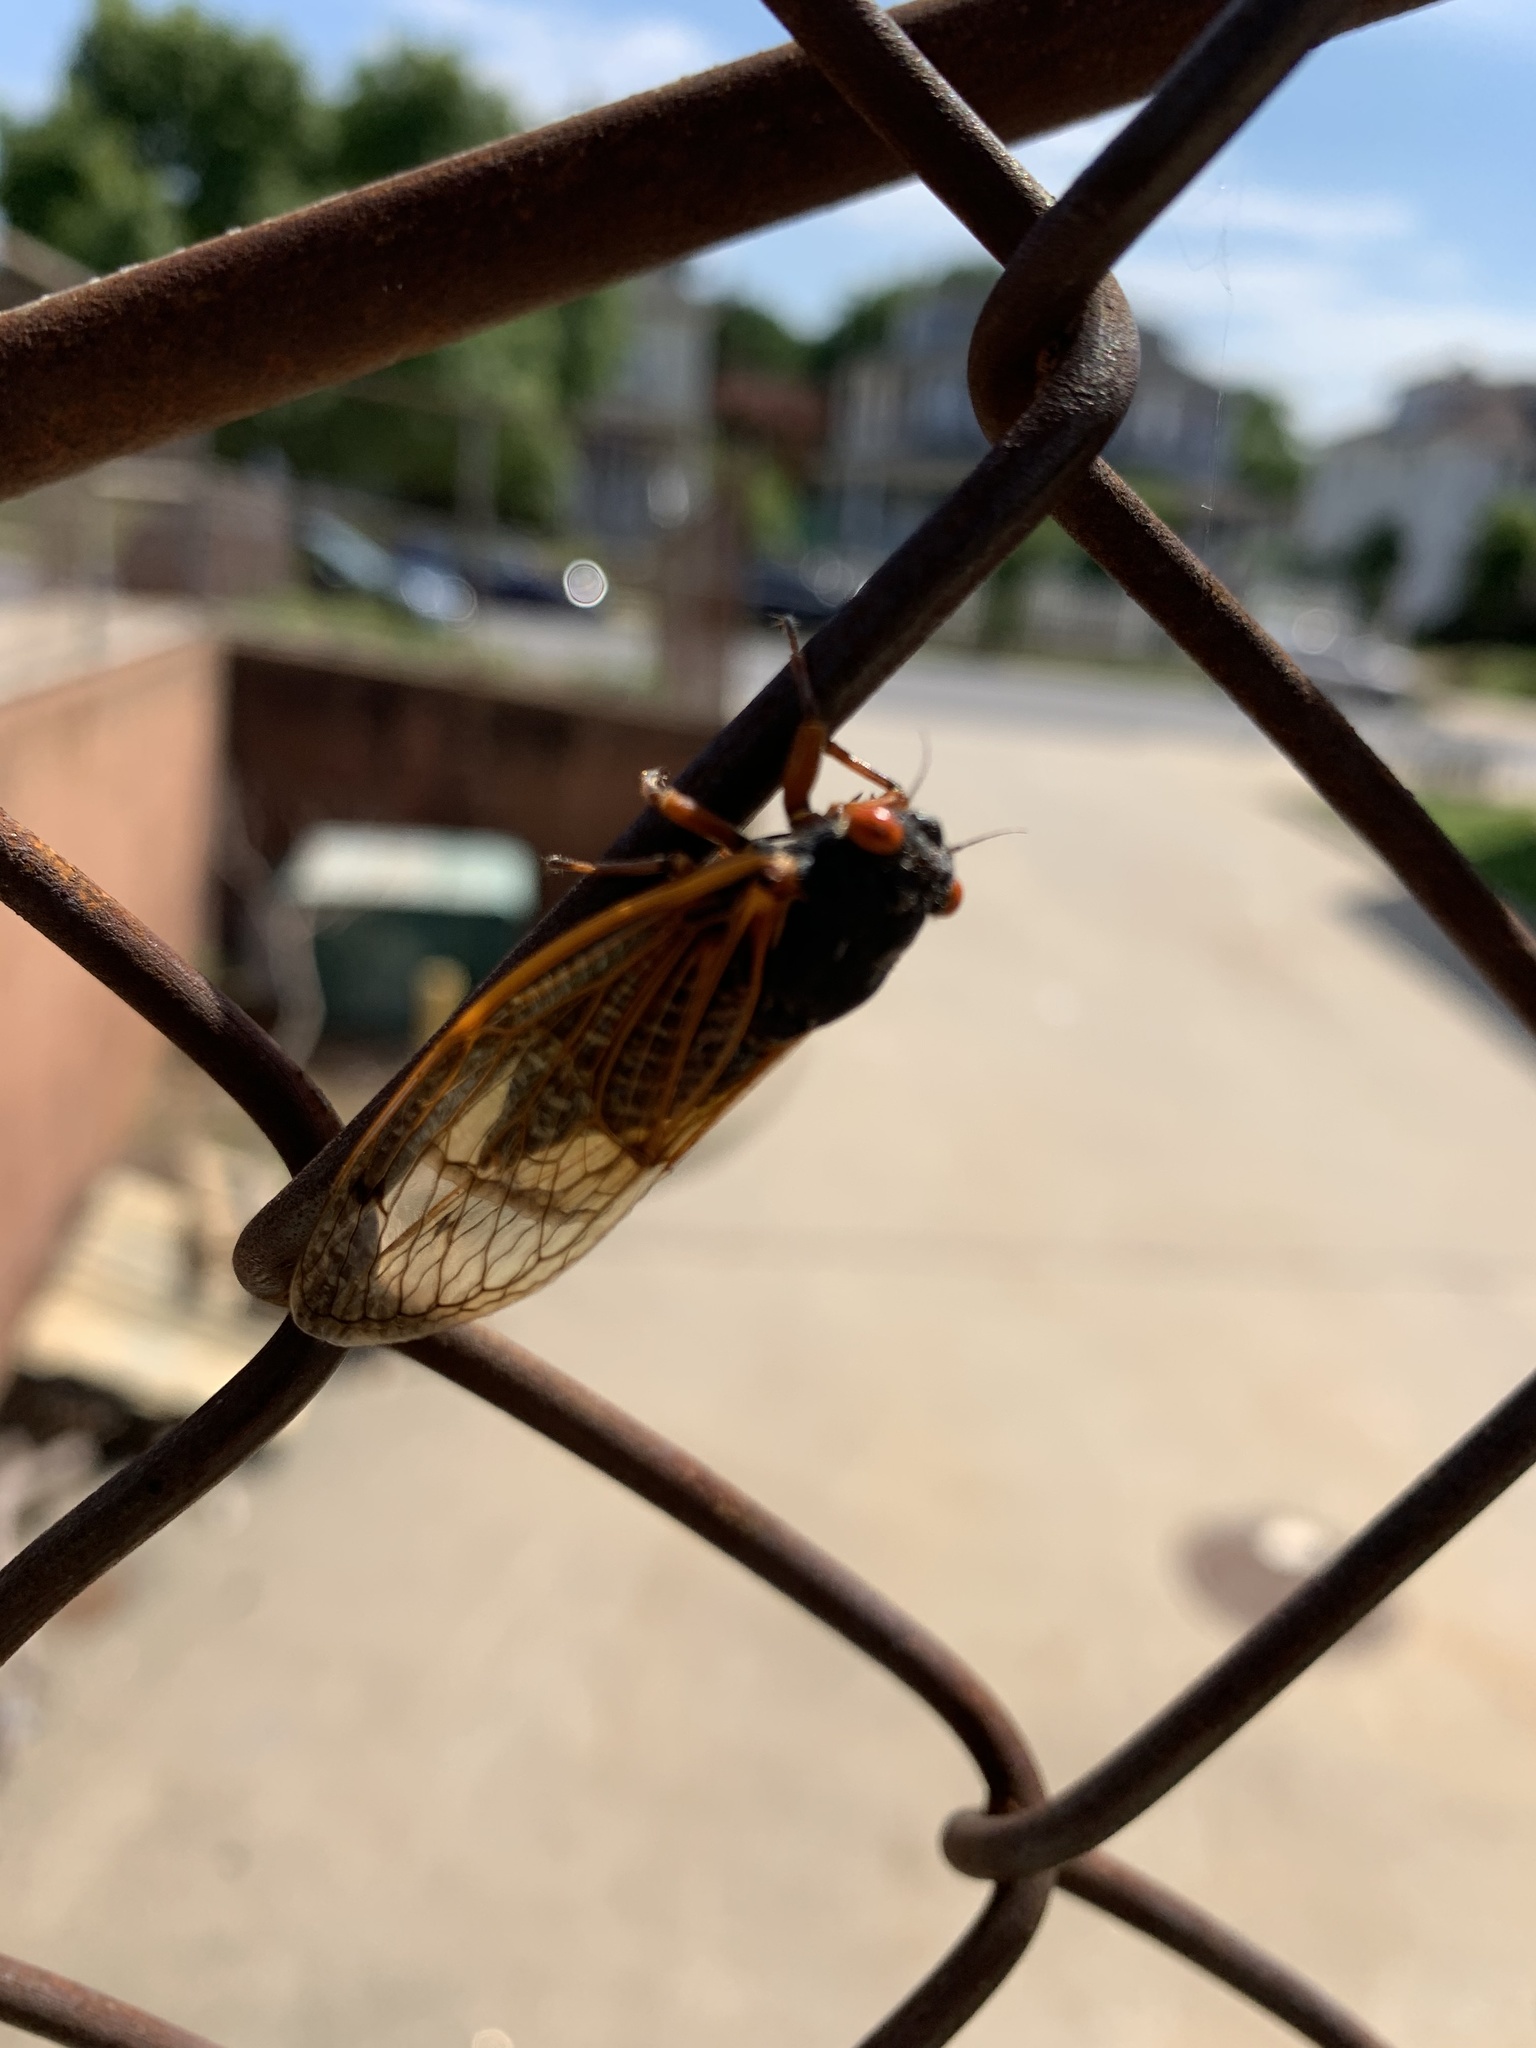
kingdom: Animalia
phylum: Arthropoda
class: Insecta
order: Hemiptera
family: Cicadidae
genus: Magicicada
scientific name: Magicicada
